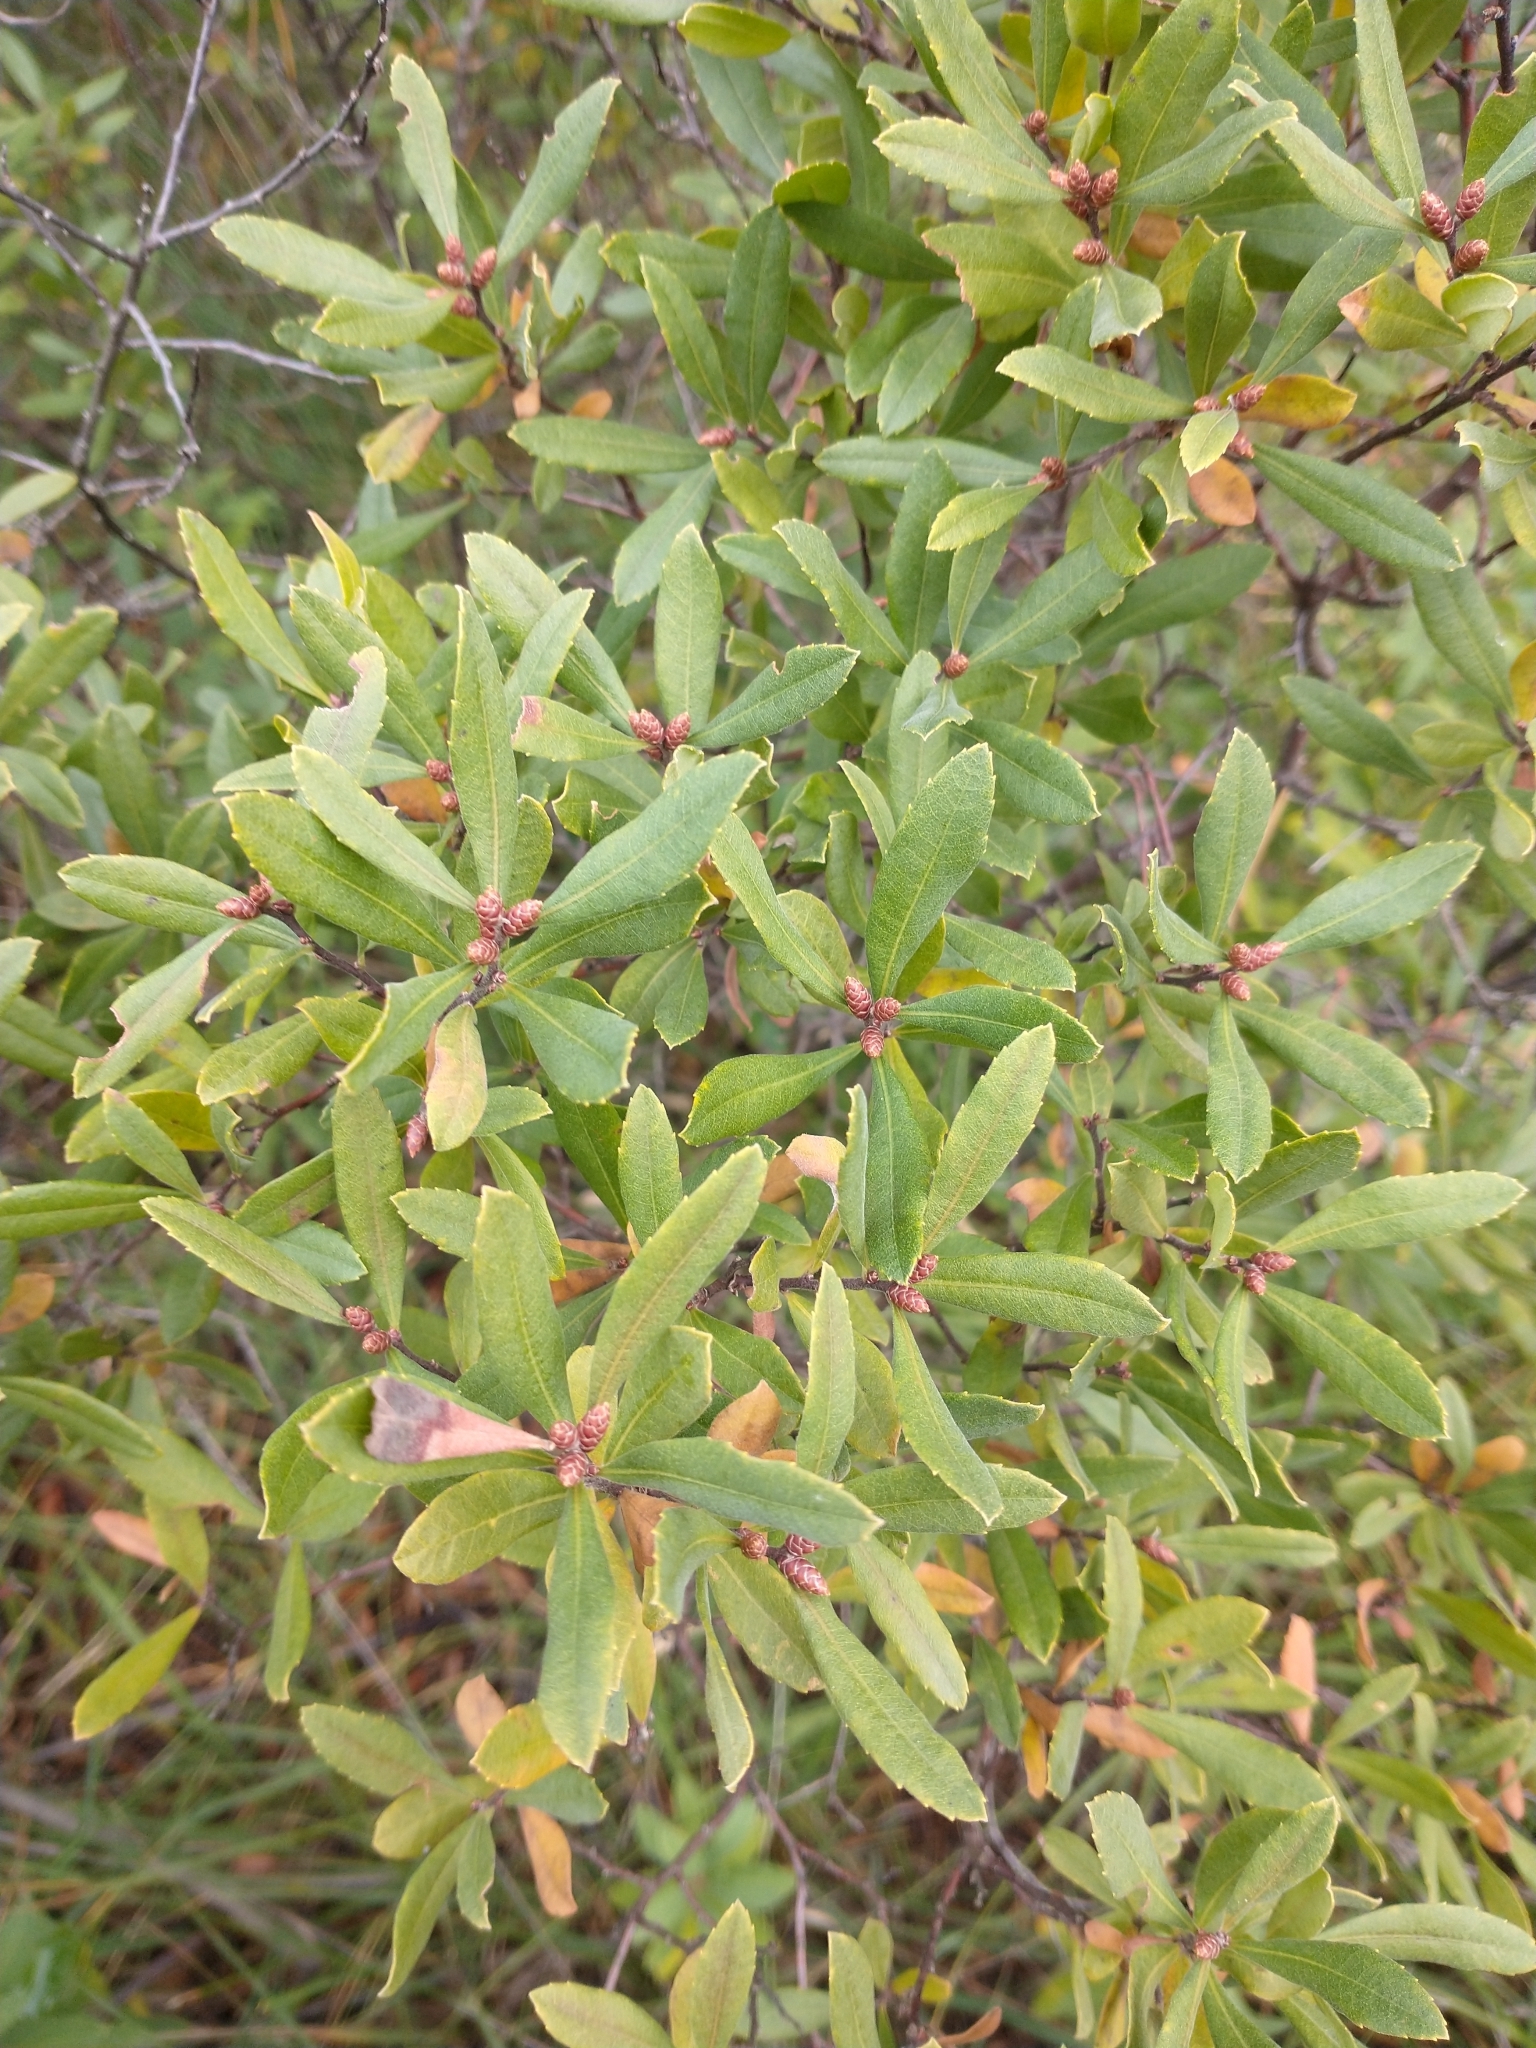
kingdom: Plantae
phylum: Tracheophyta
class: Magnoliopsida
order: Fagales
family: Myricaceae
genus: Myrica
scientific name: Myrica gale
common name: Sweet gale
